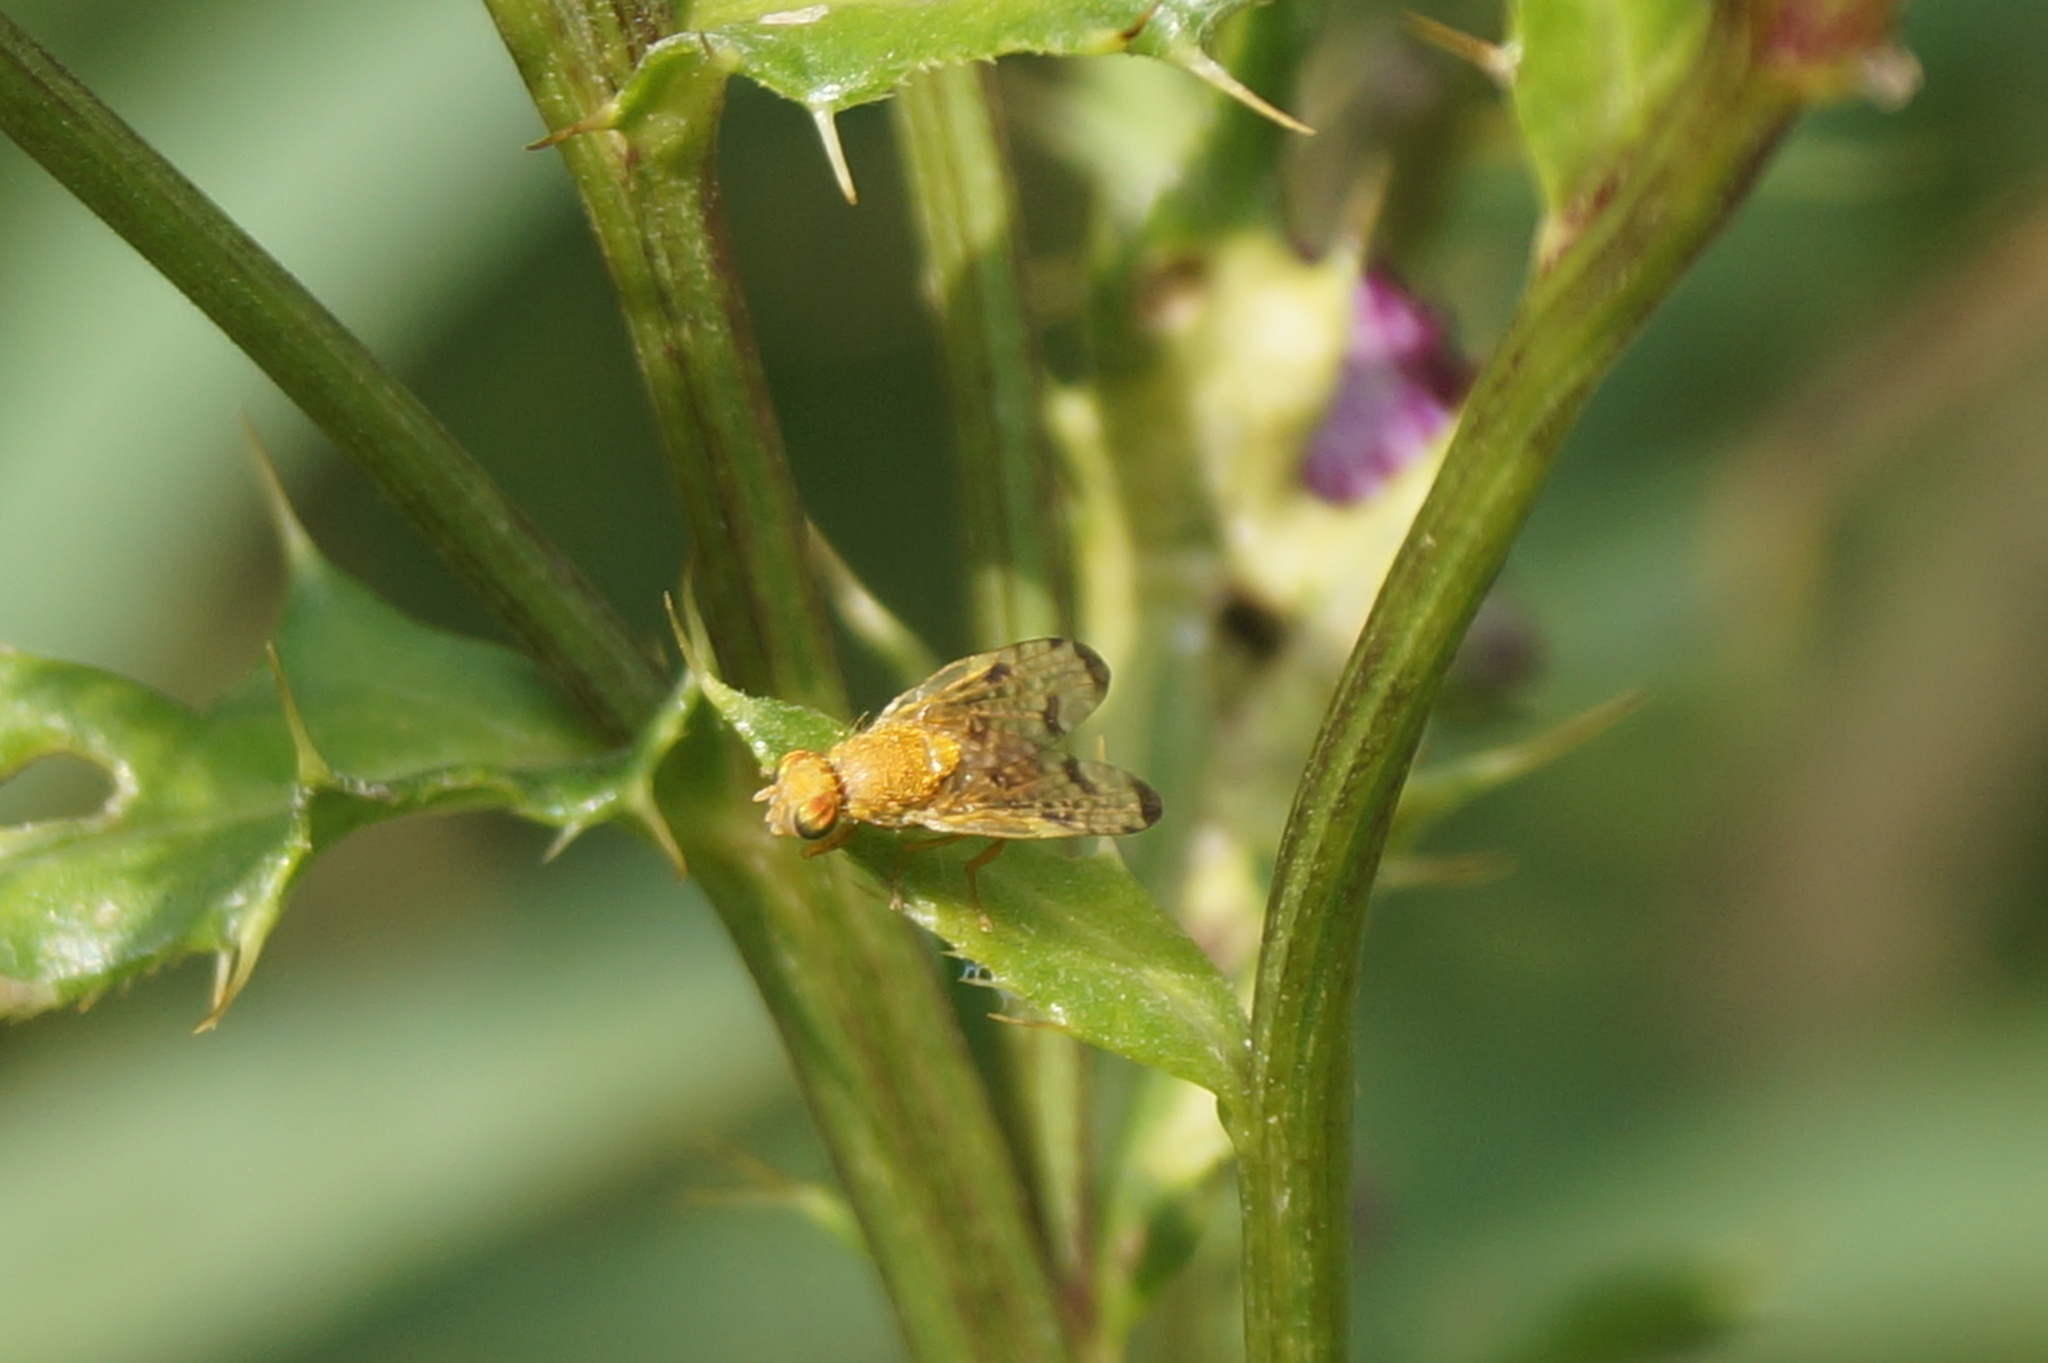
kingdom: Animalia
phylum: Arthropoda
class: Insecta
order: Diptera
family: Tephritidae
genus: Xyphosia
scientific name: Xyphosia miliaria
